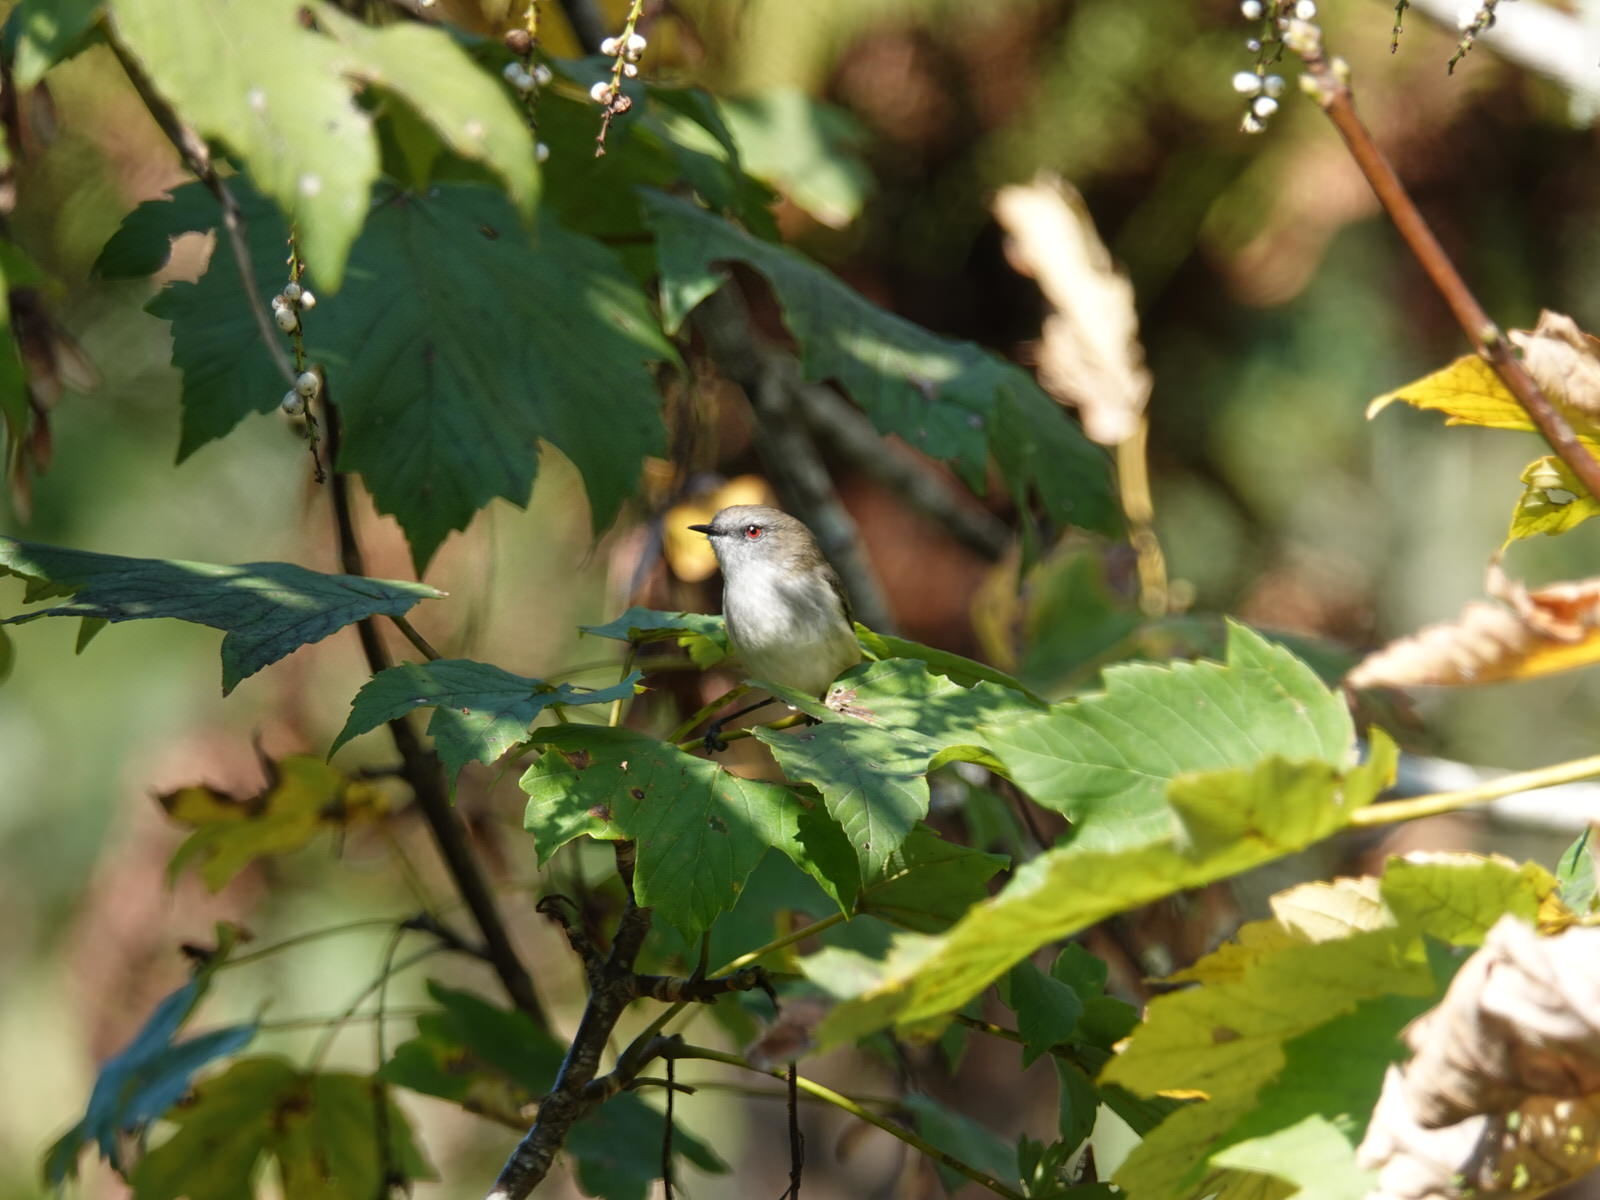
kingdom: Animalia
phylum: Chordata
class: Aves
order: Passeriformes
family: Acanthizidae
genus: Gerygone
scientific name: Gerygone igata
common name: Grey gerygone
